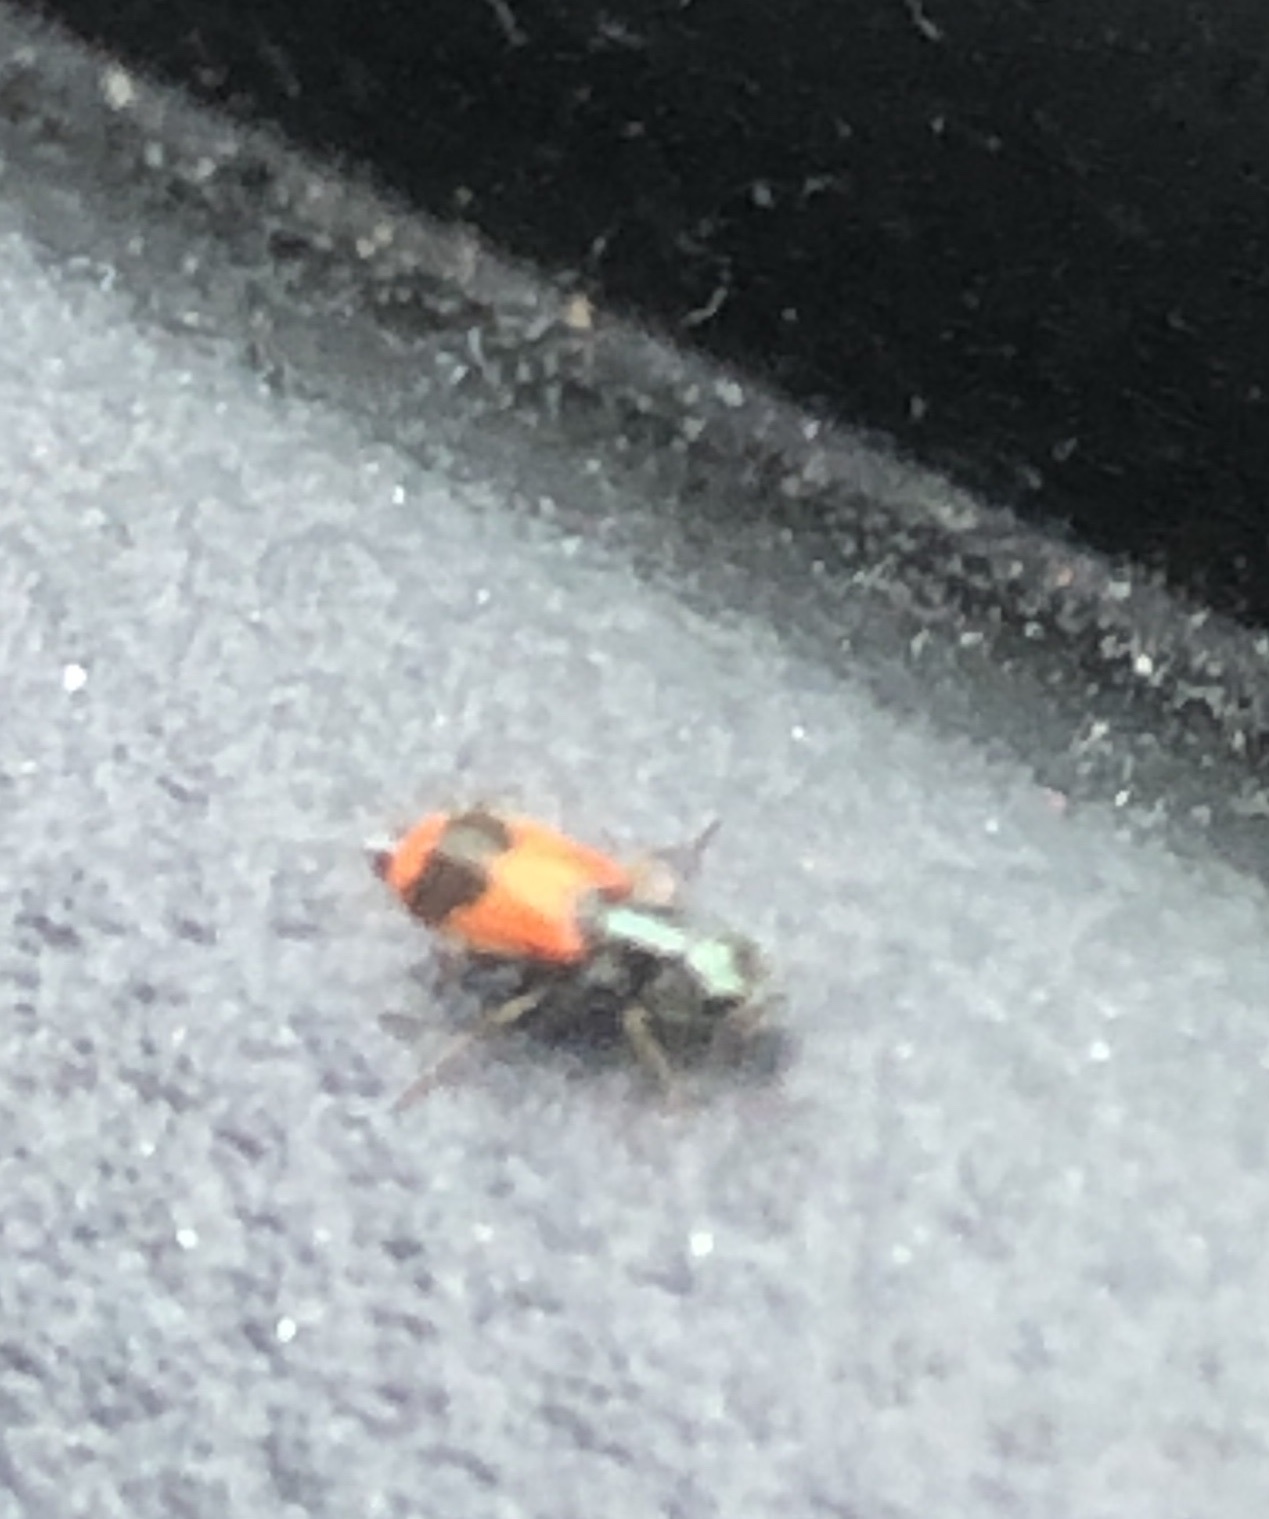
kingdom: Animalia
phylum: Arthropoda
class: Insecta
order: Coleoptera
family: Melyridae
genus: Anthocomus
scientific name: Anthocomus equestris
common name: Black-banded soft-winged flower beetle
